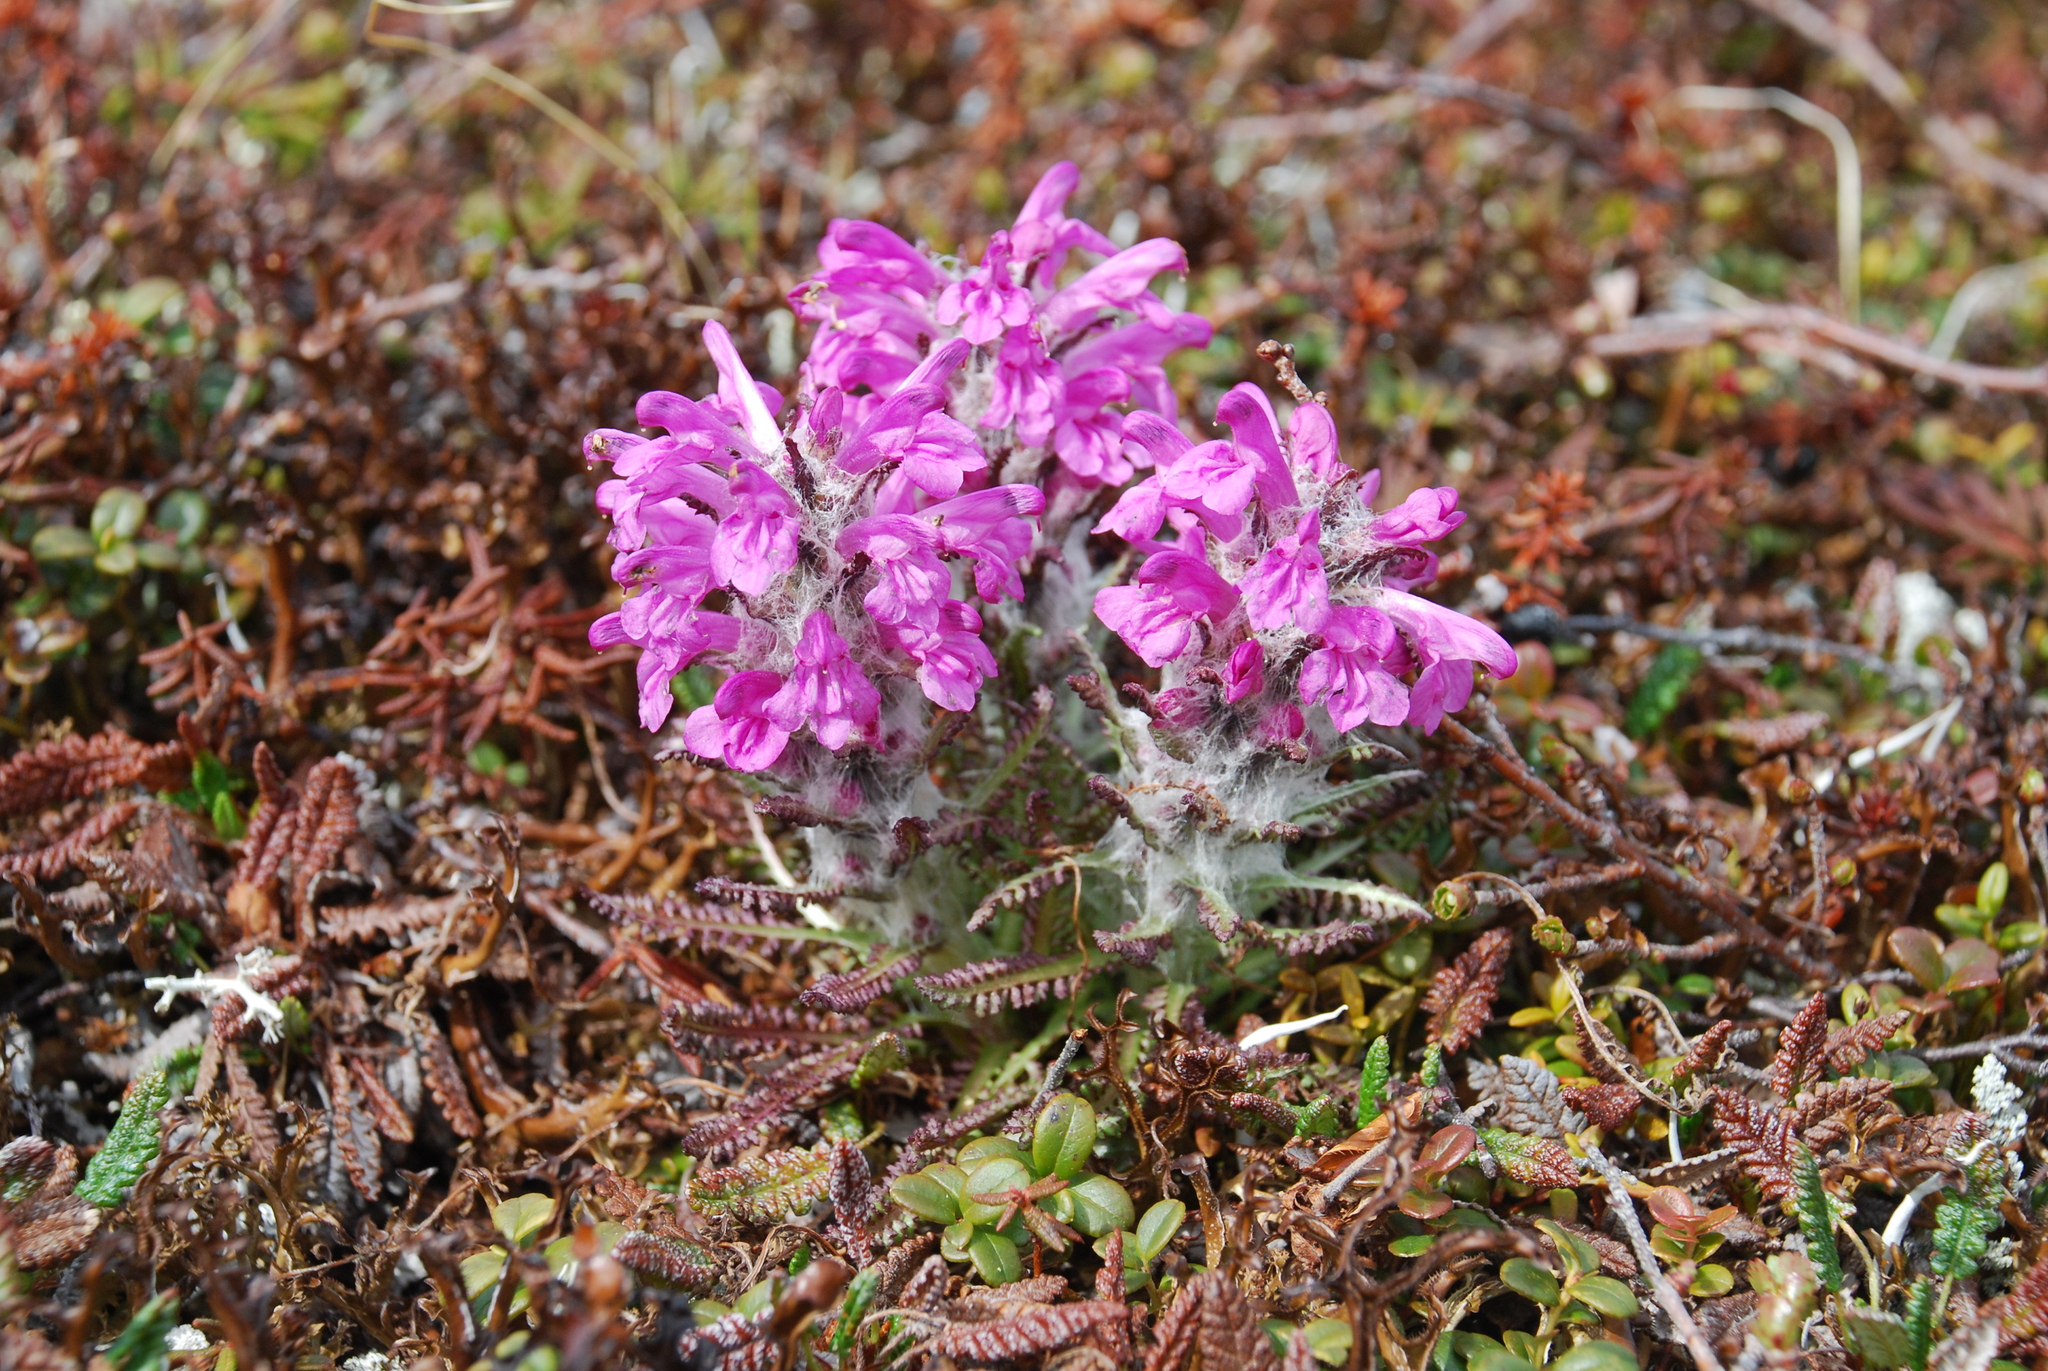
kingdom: Plantae
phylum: Tracheophyta
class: Magnoliopsida
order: Lamiales
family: Orobanchaceae
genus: Pedicularis
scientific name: Pedicularis lanata
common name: Woolly lousewort
